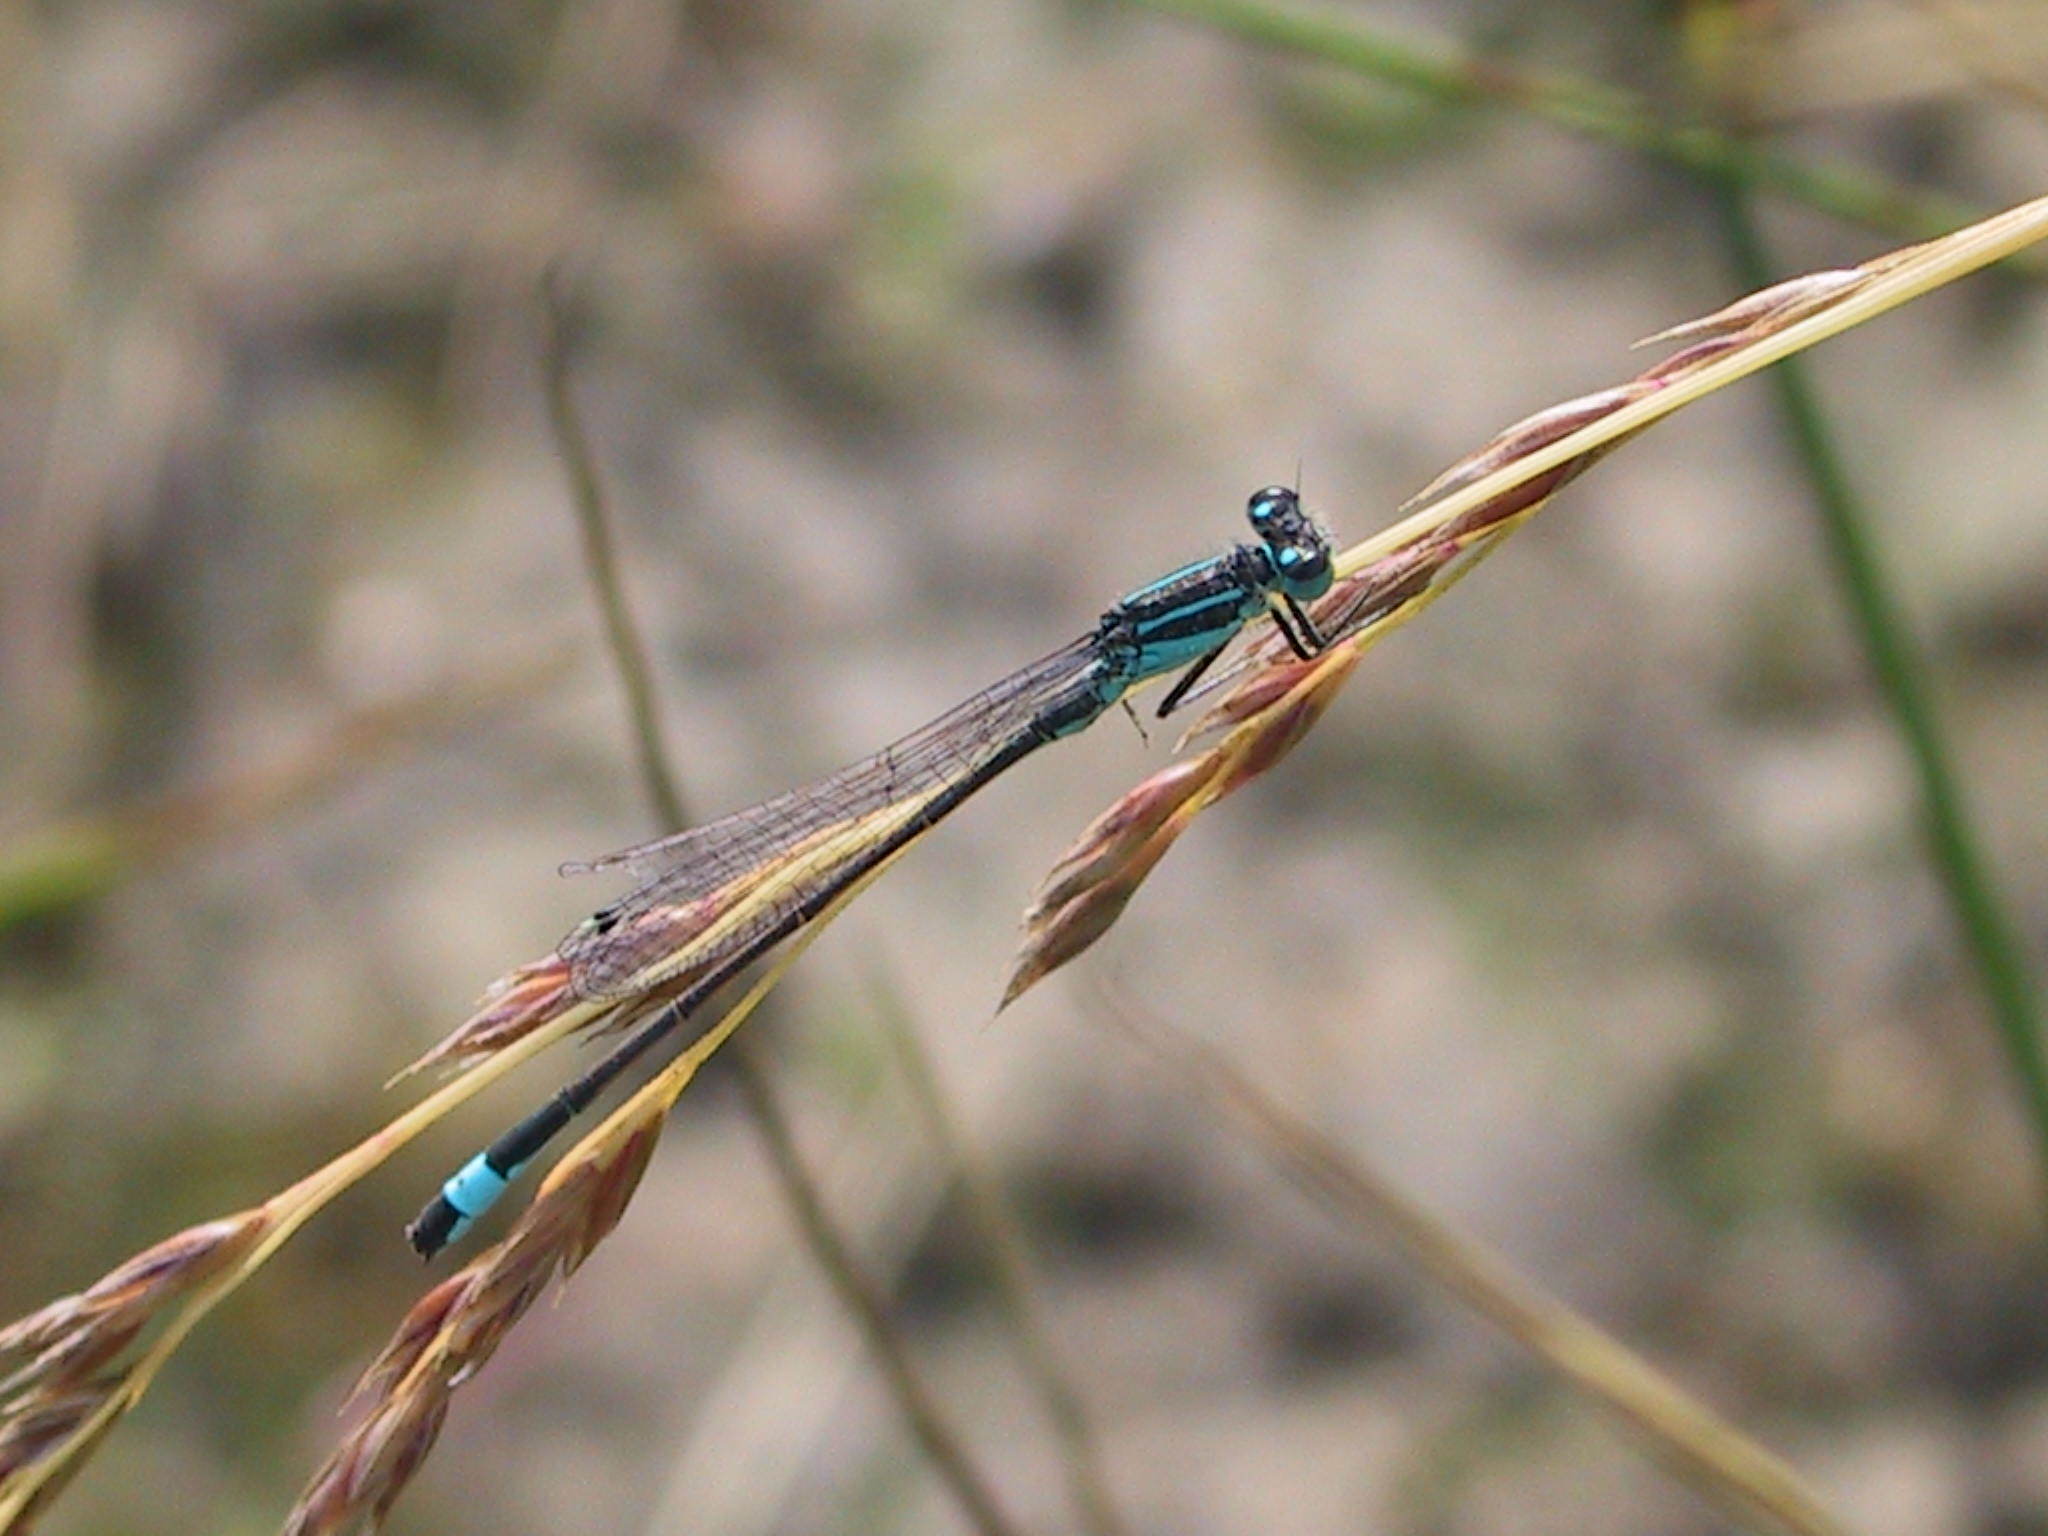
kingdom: Animalia
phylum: Arthropoda
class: Insecta
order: Odonata
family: Coenagrionidae
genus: Ischnura
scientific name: Ischnura elegans
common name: Blue-tailed damselfly
